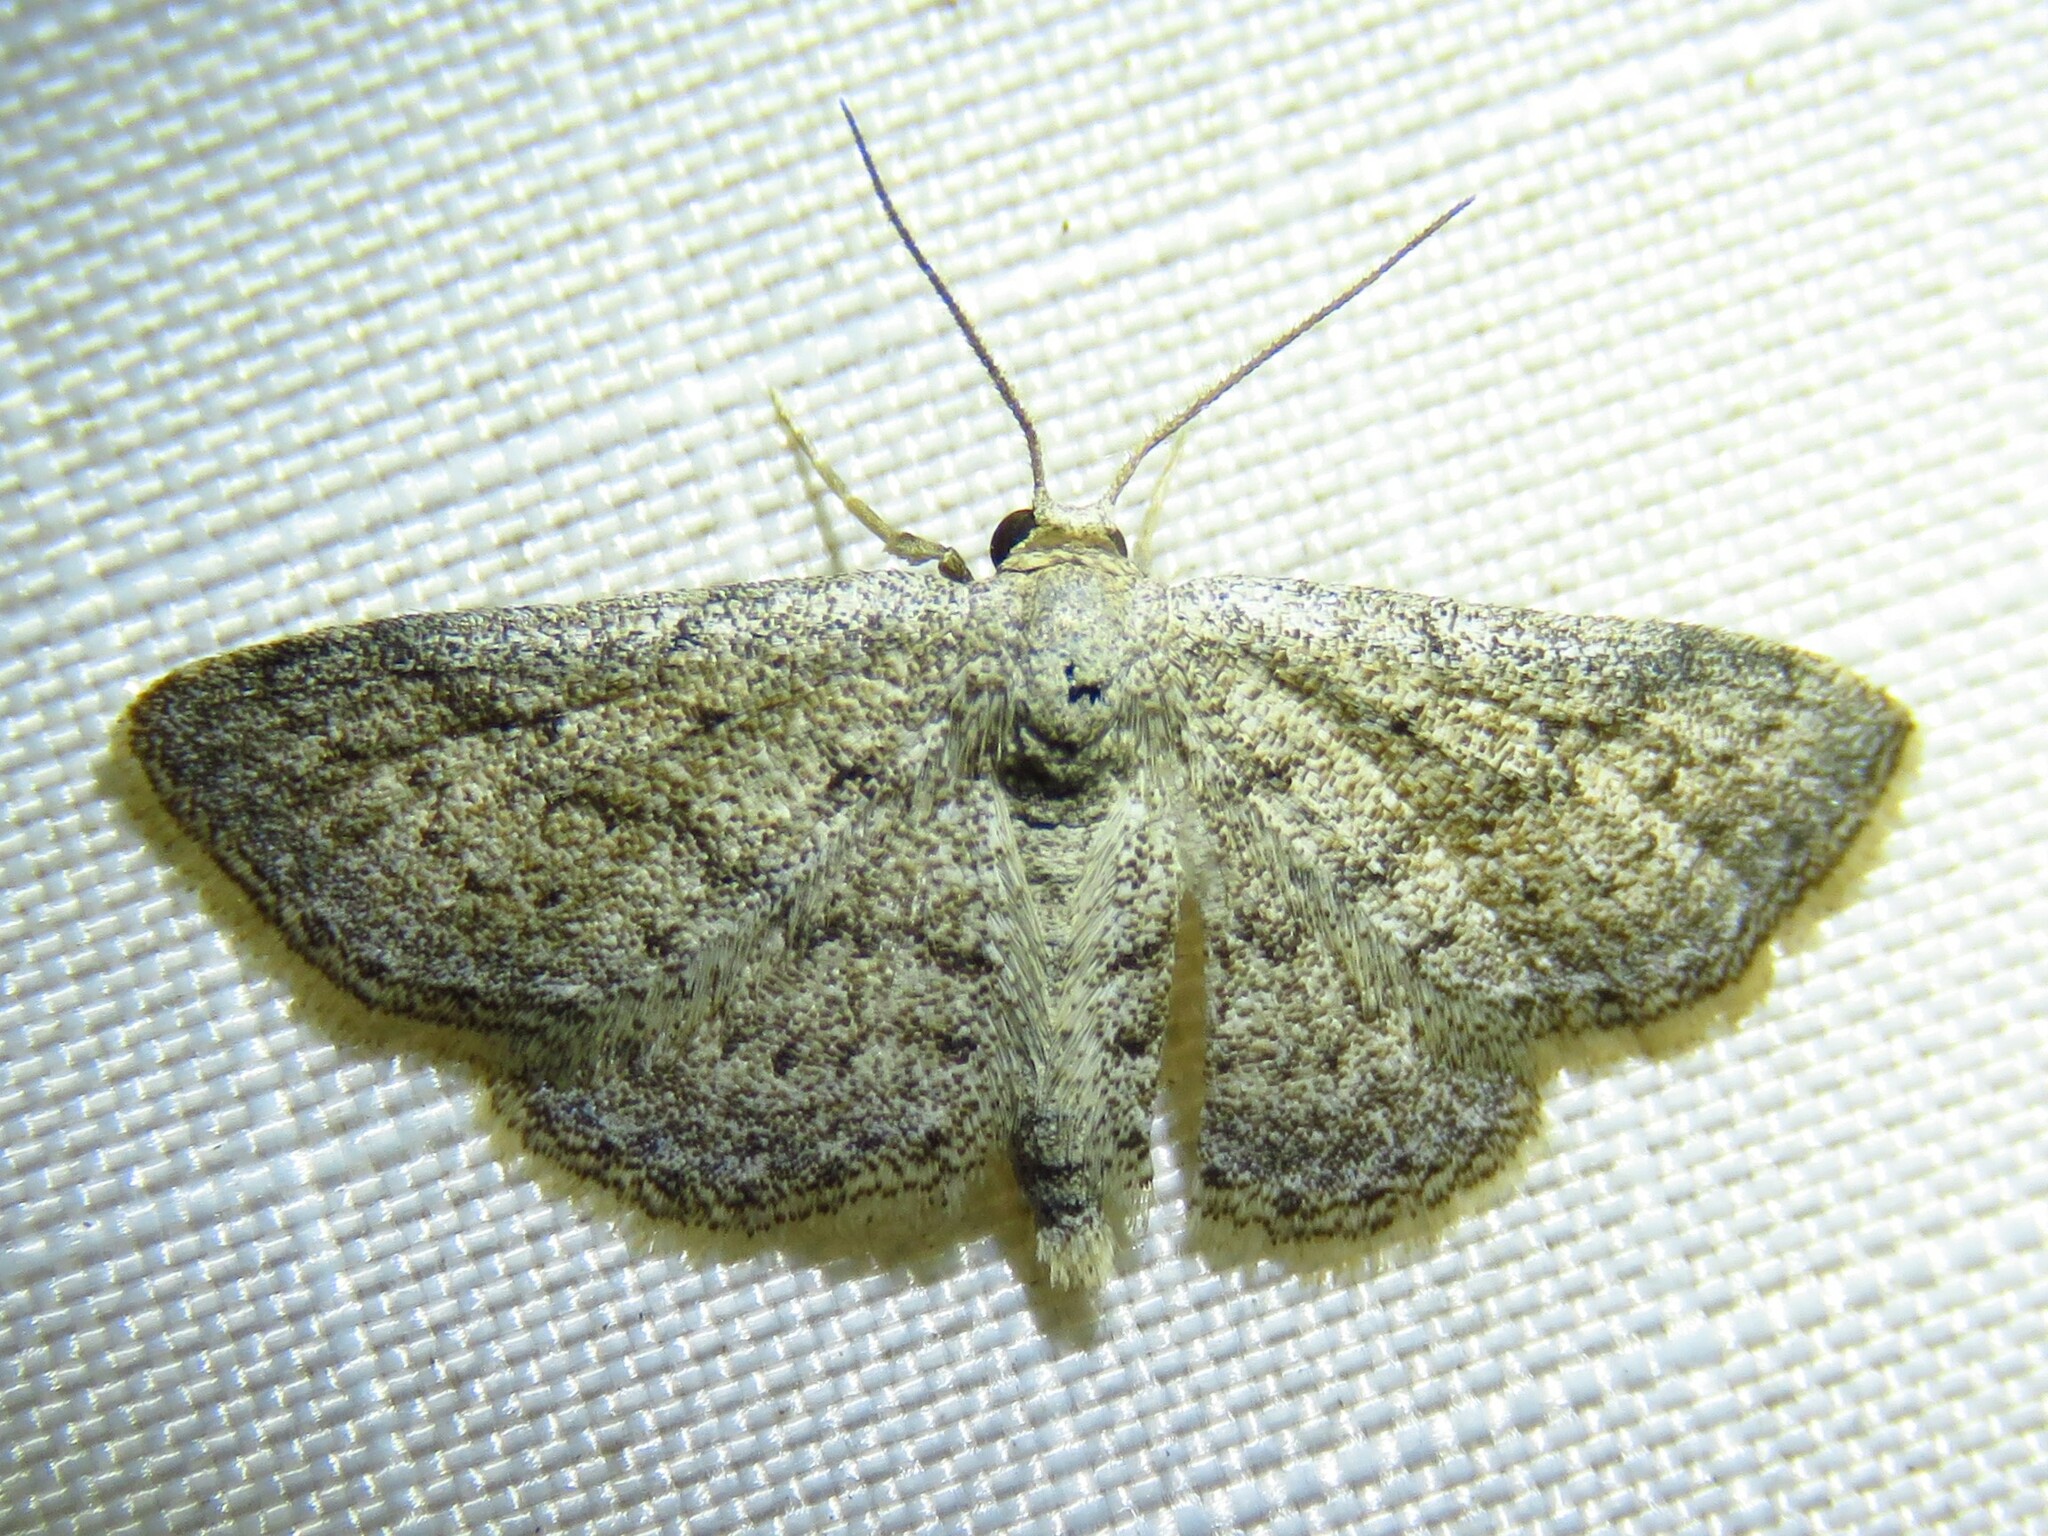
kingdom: Animalia
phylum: Arthropoda
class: Insecta
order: Lepidoptera
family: Geometridae
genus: Lobocleta
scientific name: Lobocleta ossularia
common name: Drab brown wave
